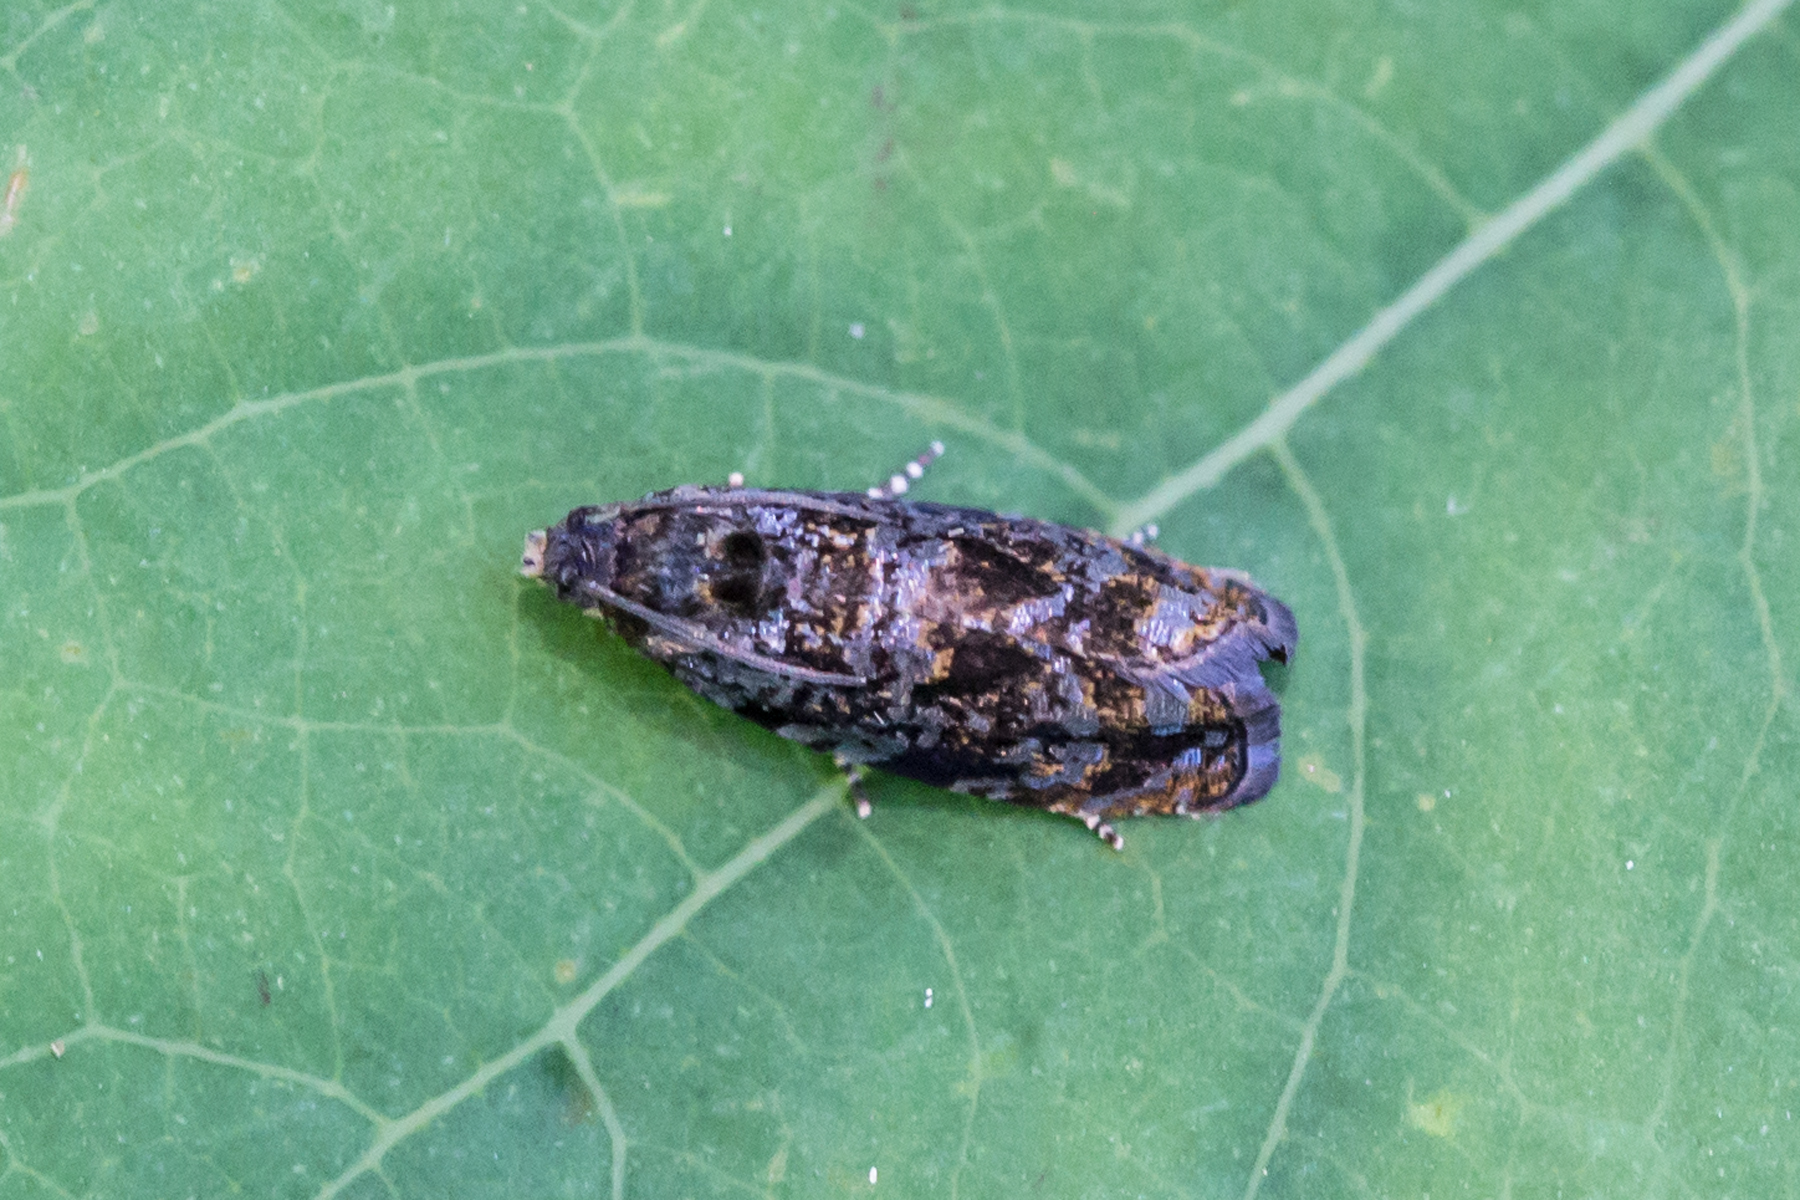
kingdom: Animalia
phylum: Arthropoda
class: Insecta
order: Lepidoptera
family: Tortricidae
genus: Pristerognatha
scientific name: Pristerognatha agilana
